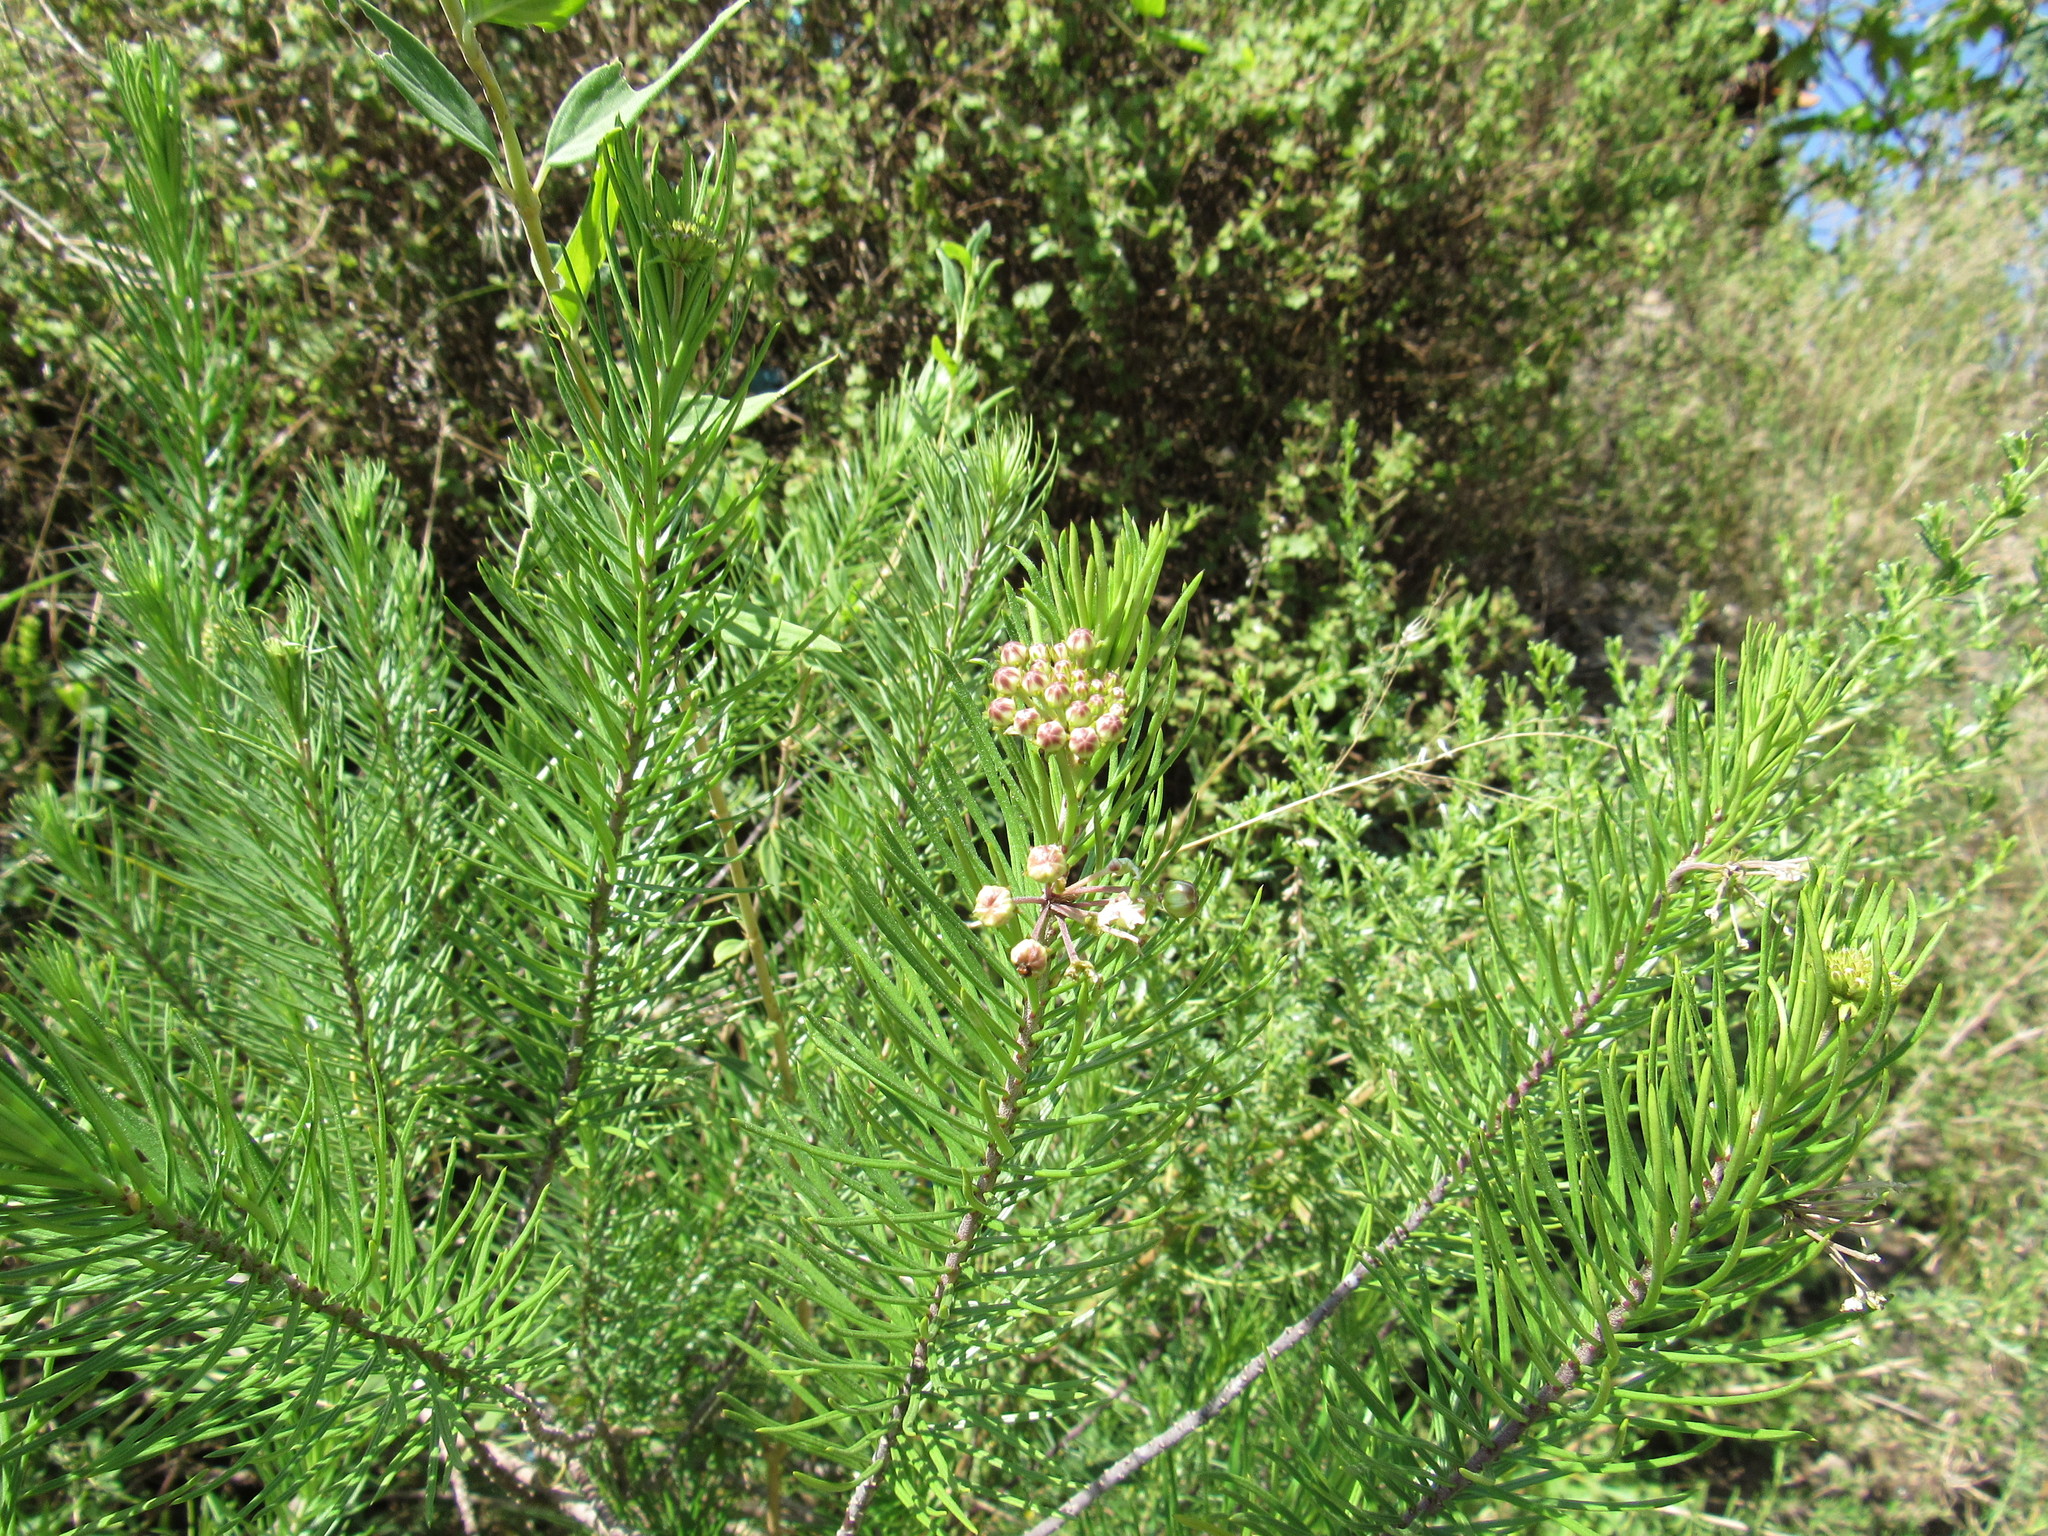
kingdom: Plantae
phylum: Tracheophyta
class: Magnoliopsida
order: Gentianales
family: Apocynaceae
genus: Asclepias
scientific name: Asclepias linaria
